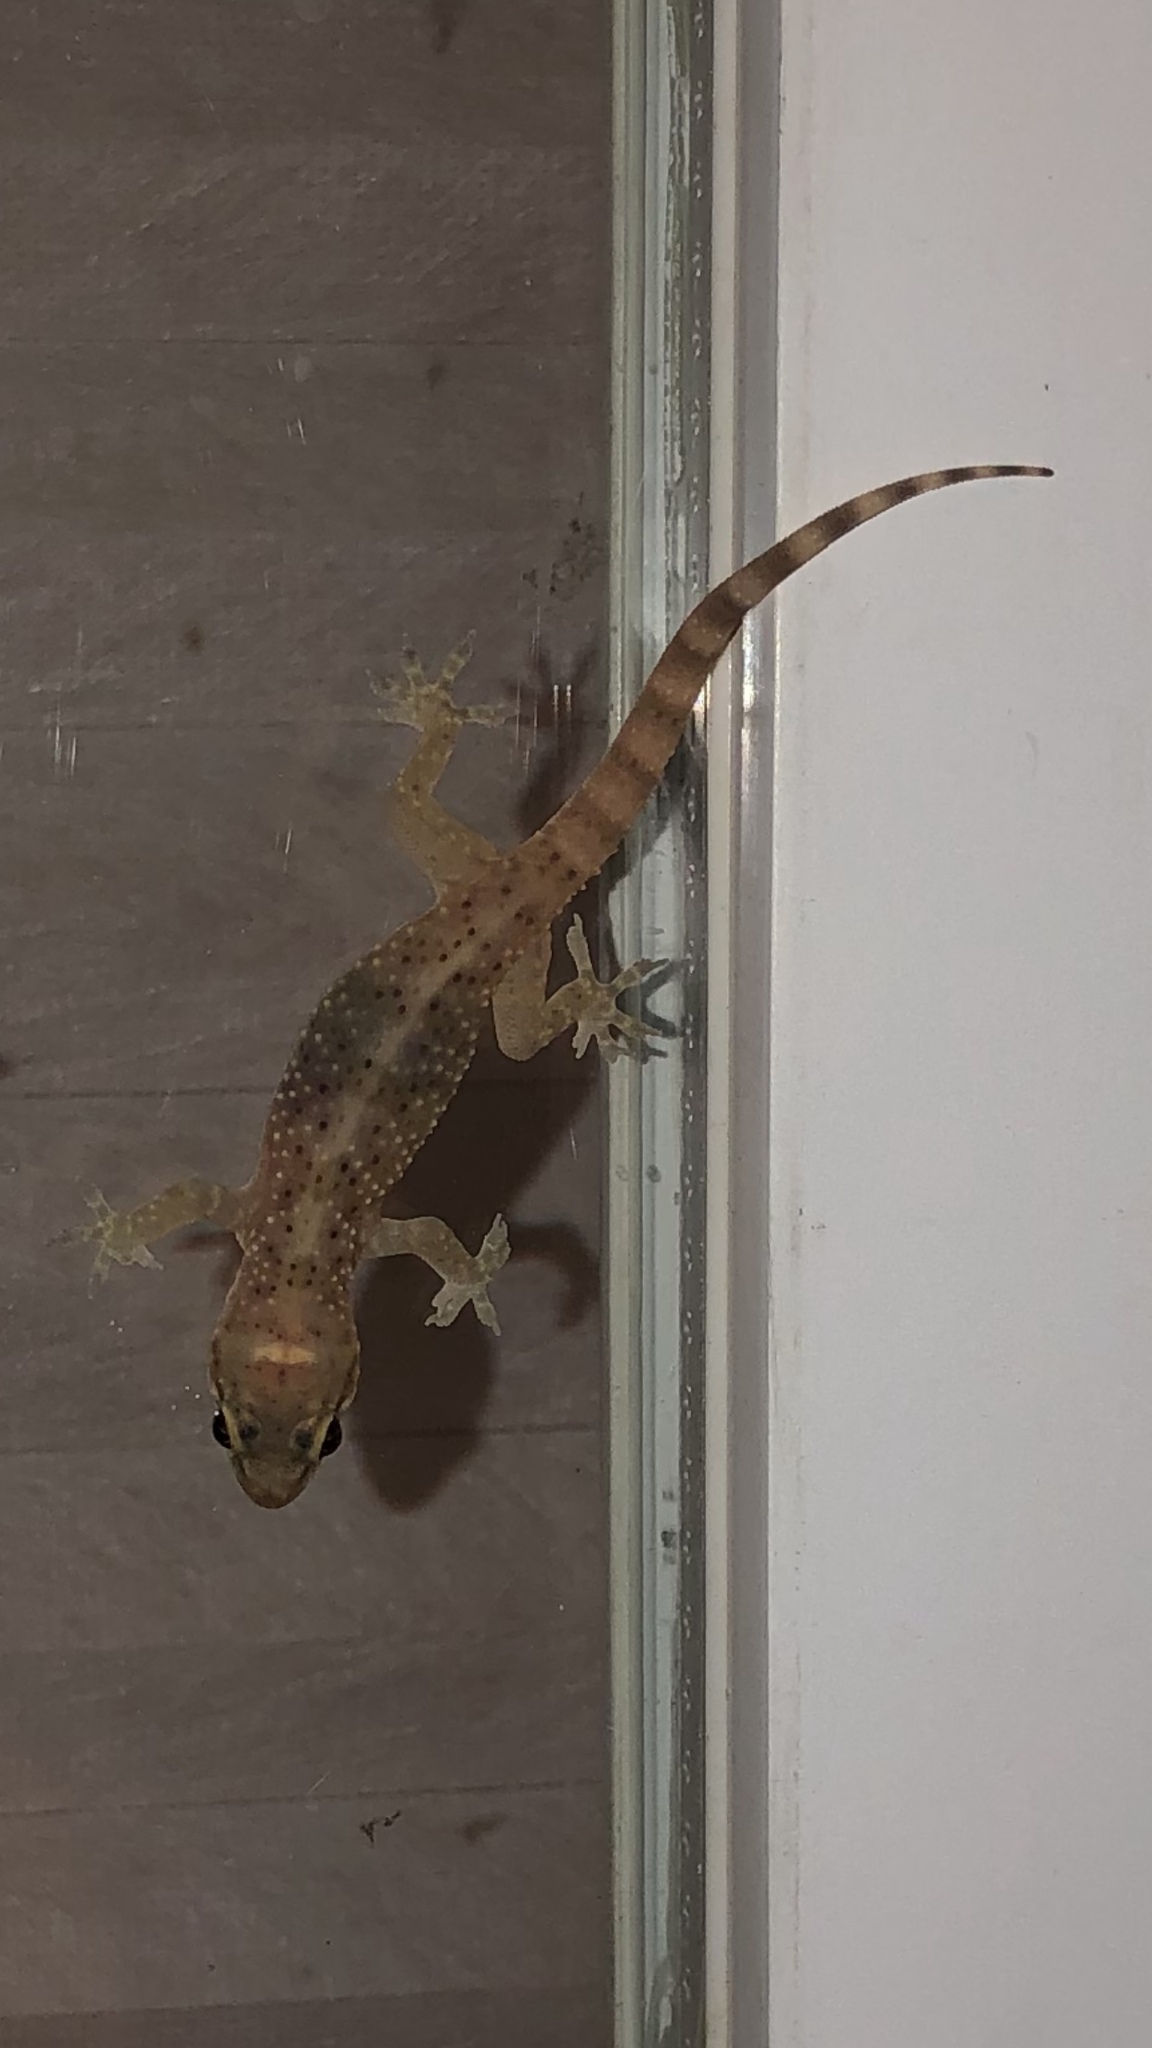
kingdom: Animalia
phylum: Chordata
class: Squamata
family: Gekkonidae
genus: Hemidactylus
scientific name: Hemidactylus turcicus
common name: Turkish gecko
